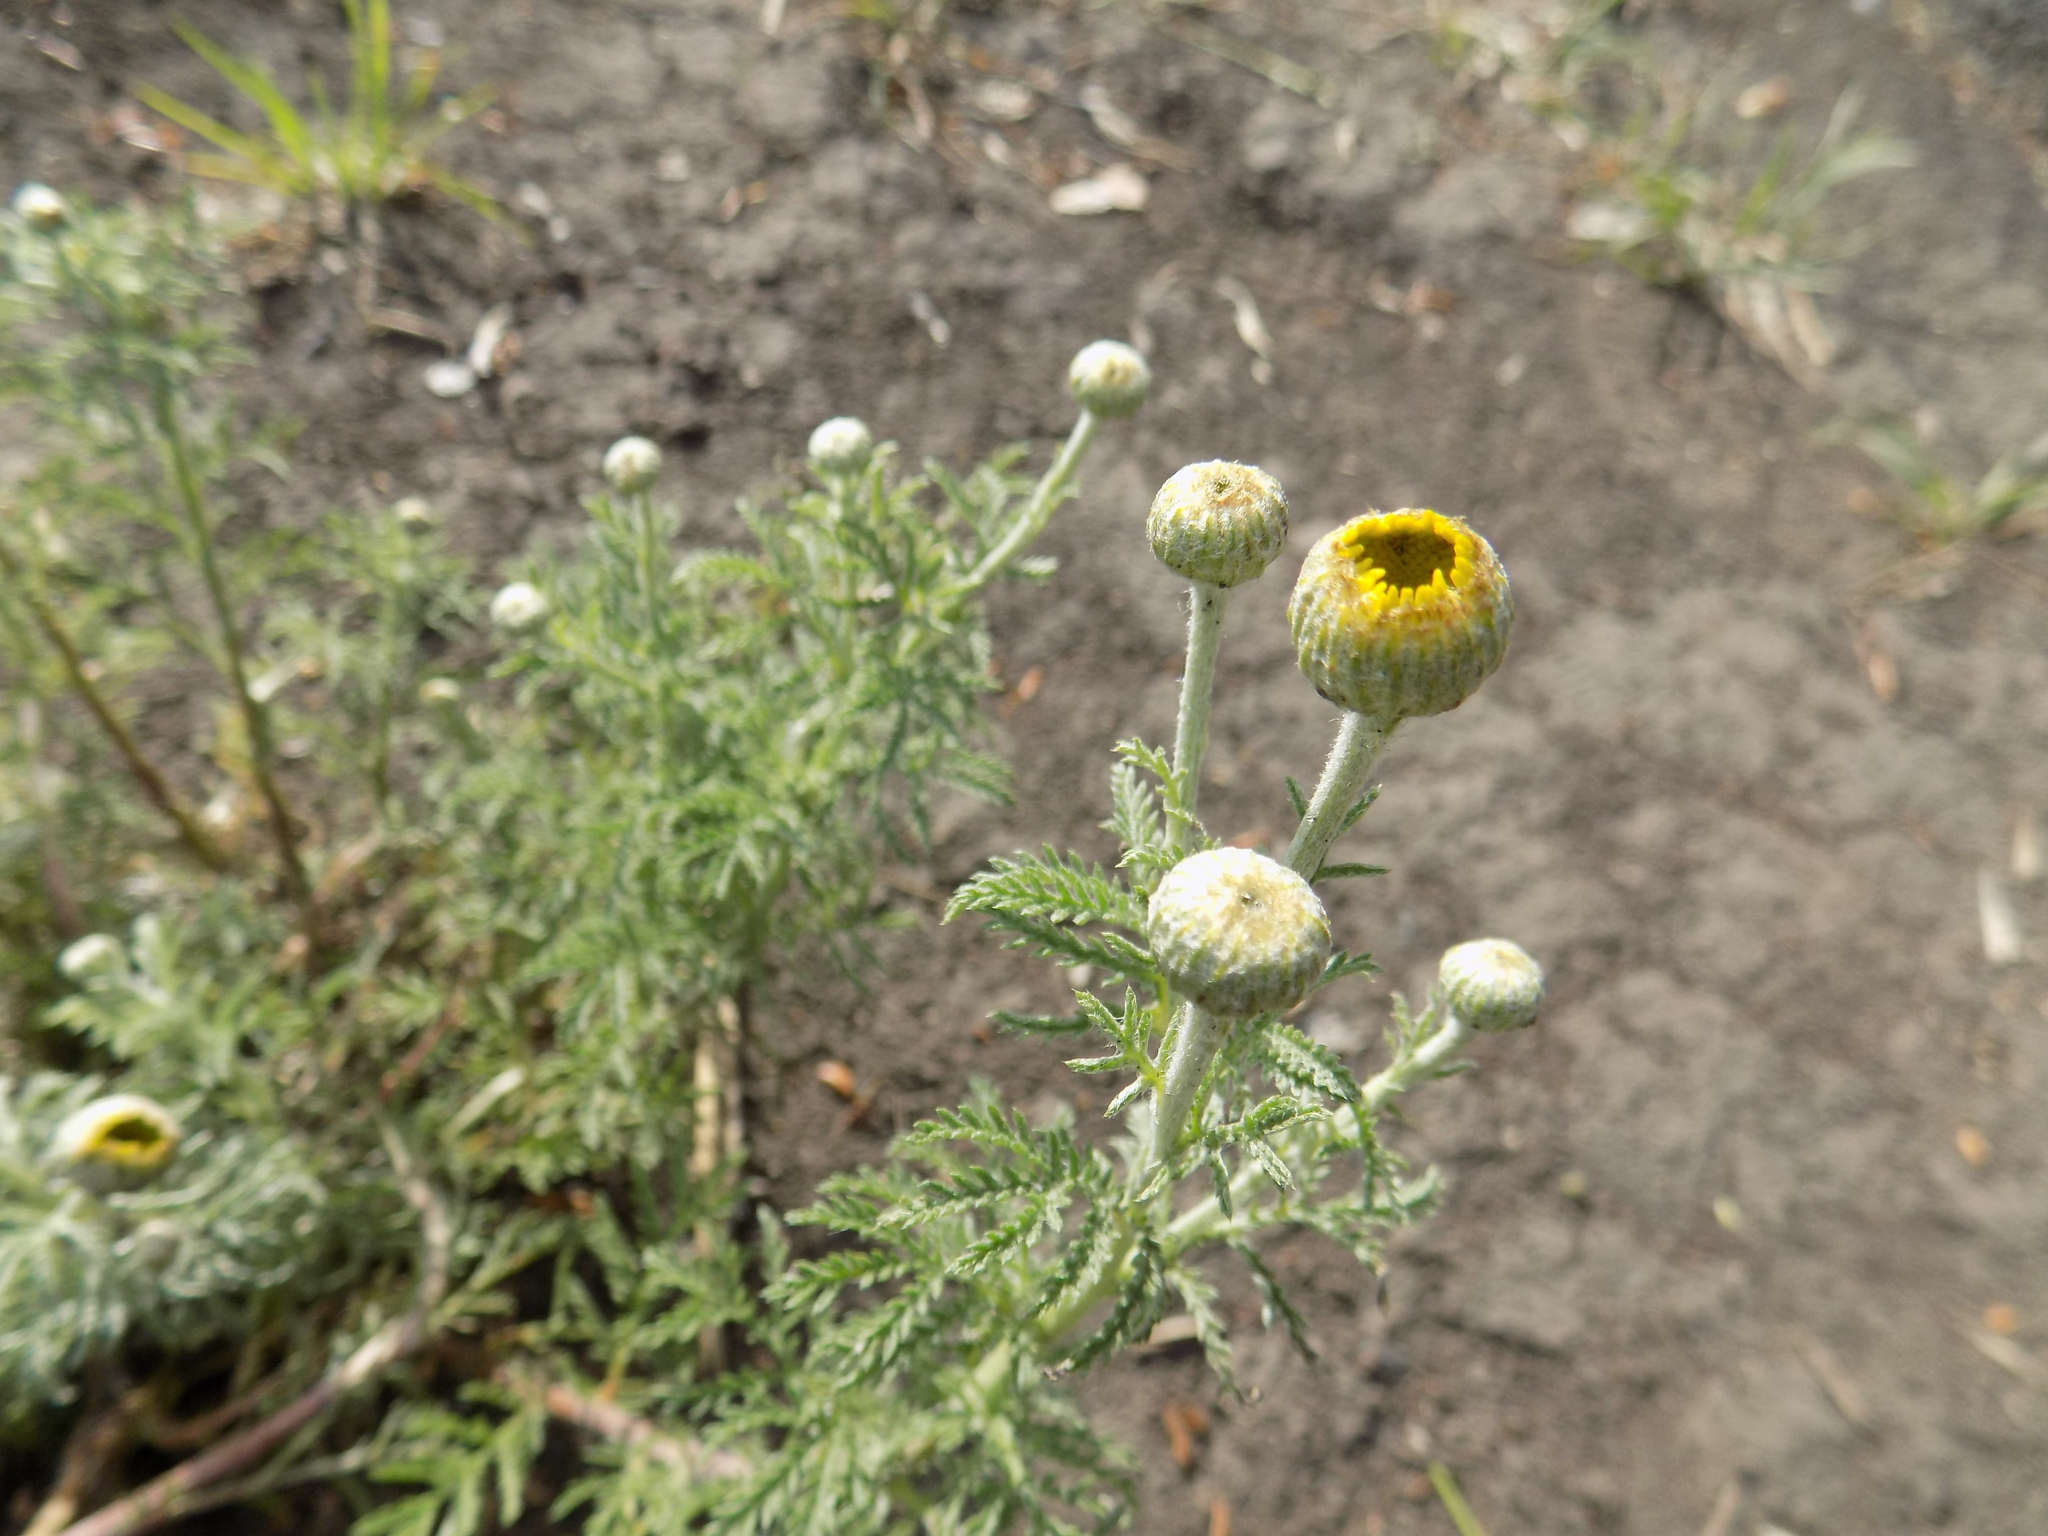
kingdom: Plantae
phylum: Tracheophyta
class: Magnoliopsida
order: Asterales
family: Asteraceae
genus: Cota
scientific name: Cota tinctoria
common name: Golden chamomile
